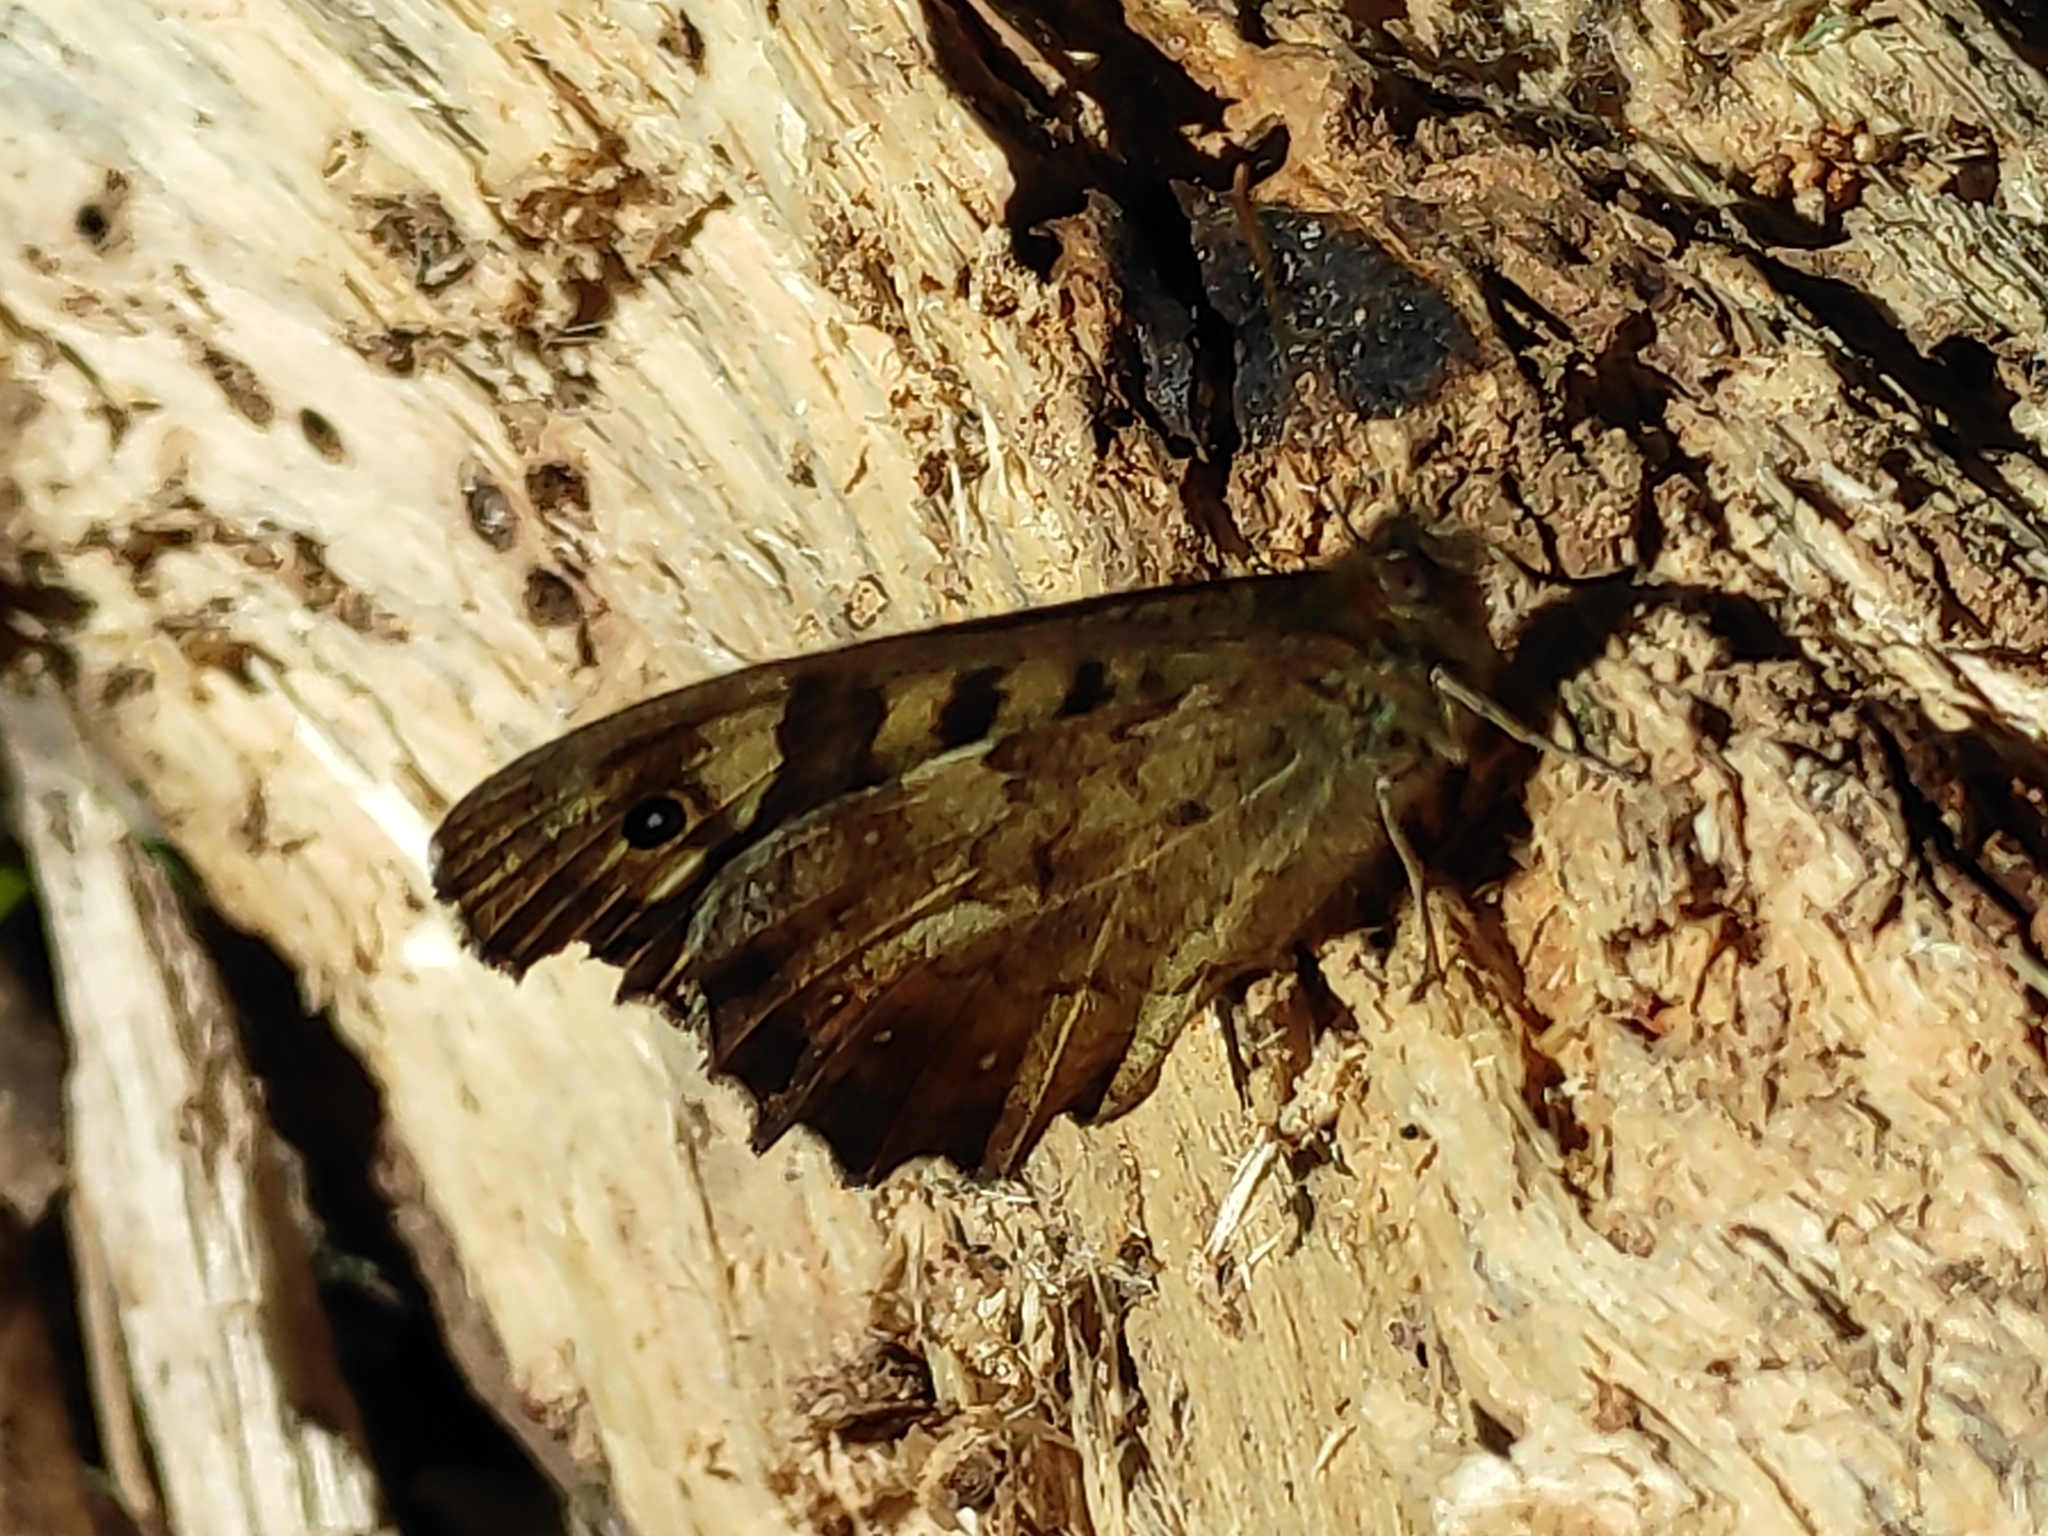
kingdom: Animalia
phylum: Arthropoda
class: Insecta
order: Lepidoptera
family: Nymphalidae
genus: Pararge
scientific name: Pararge aegeria
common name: Speckled wood
